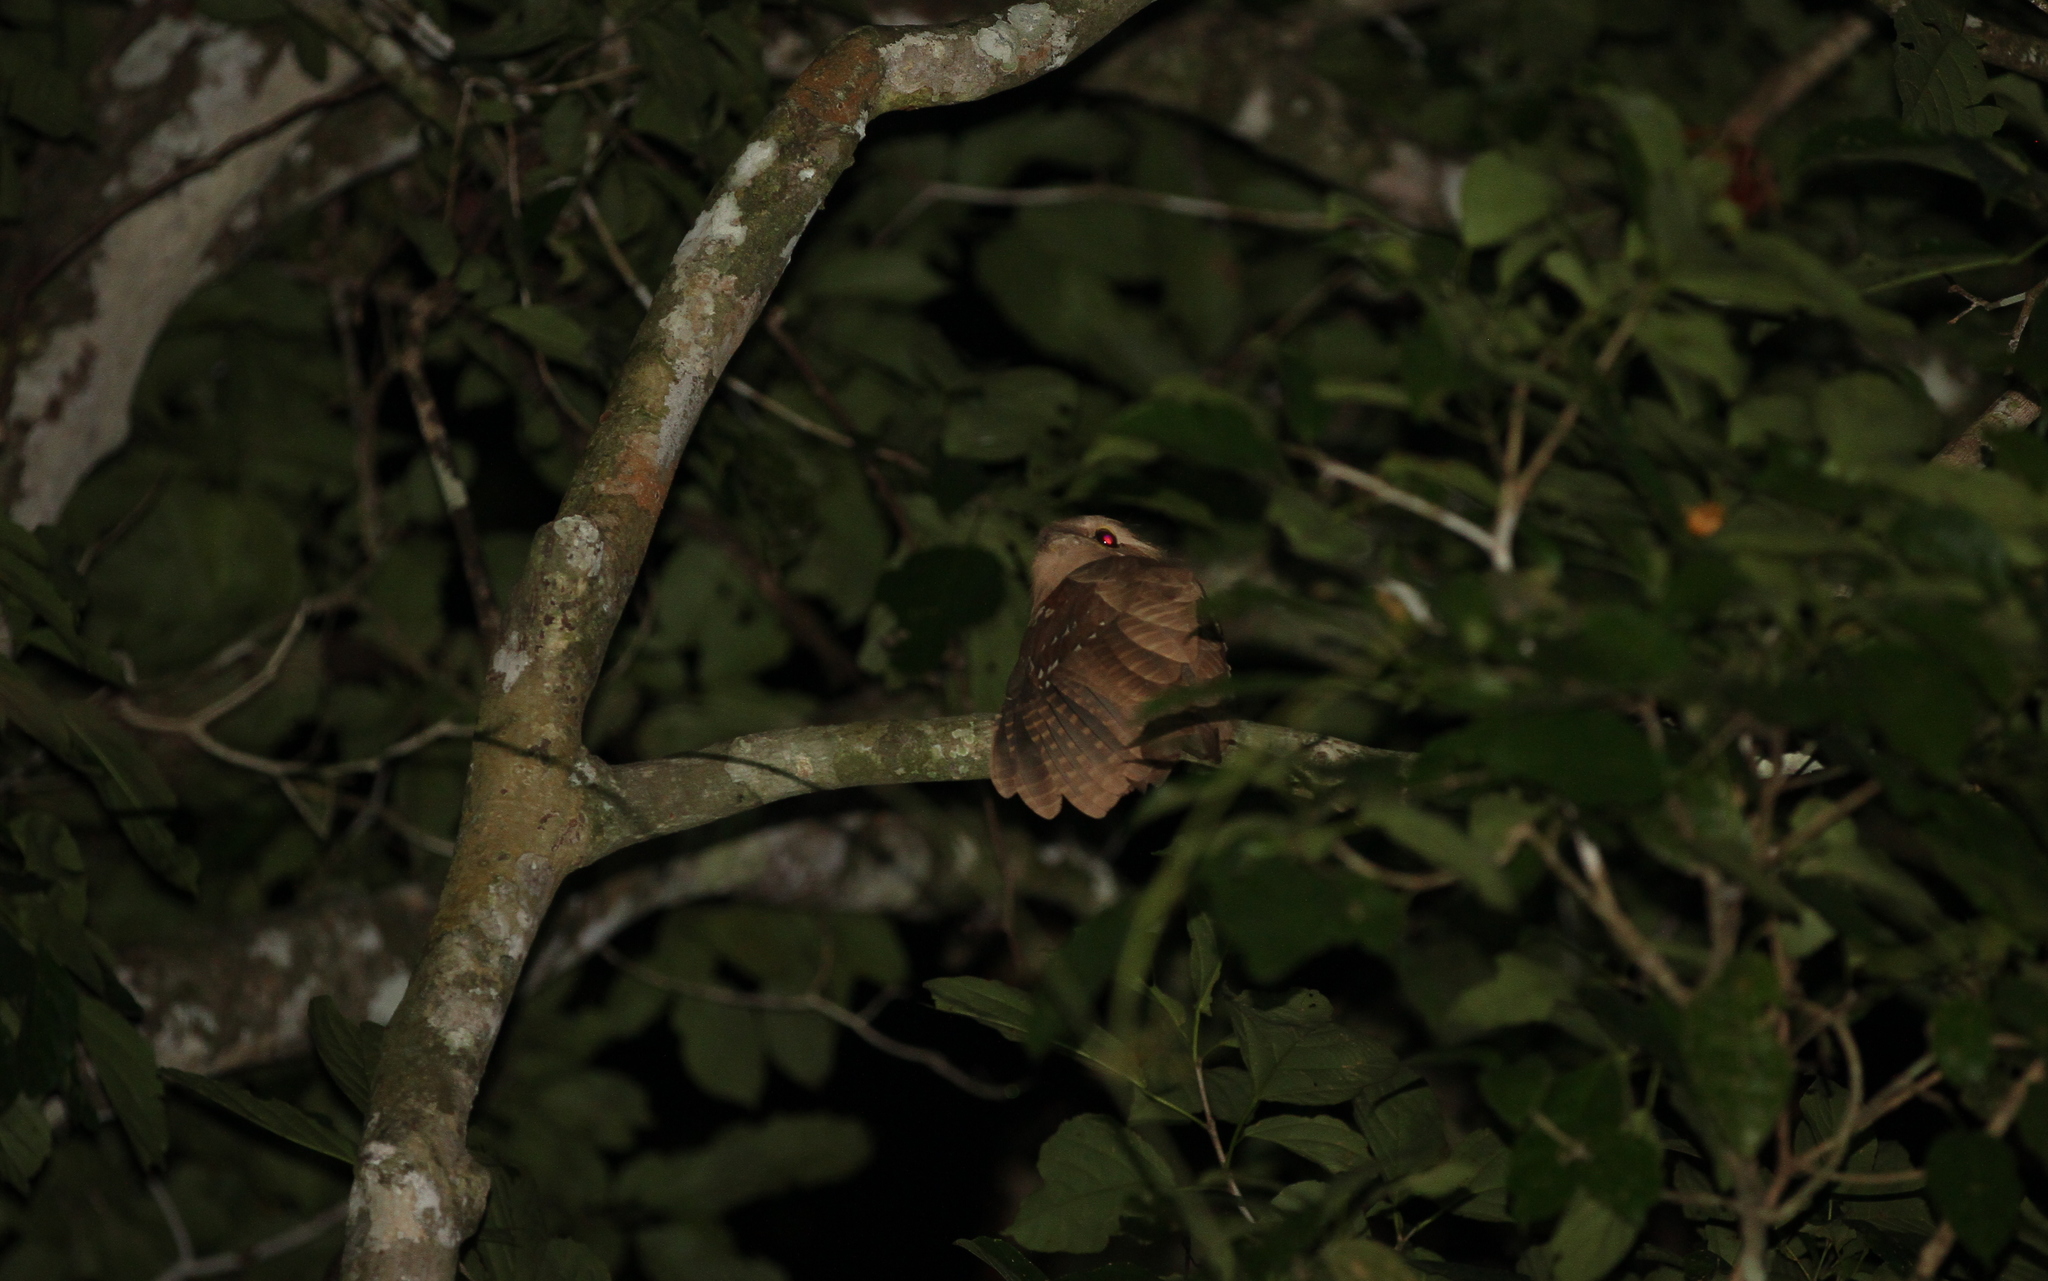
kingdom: Animalia
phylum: Chordata
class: Aves
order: Caprimulgiformes
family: Podargidae
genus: Batrachostomus
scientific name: Batrachostomus auritus
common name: Large frogmouth
